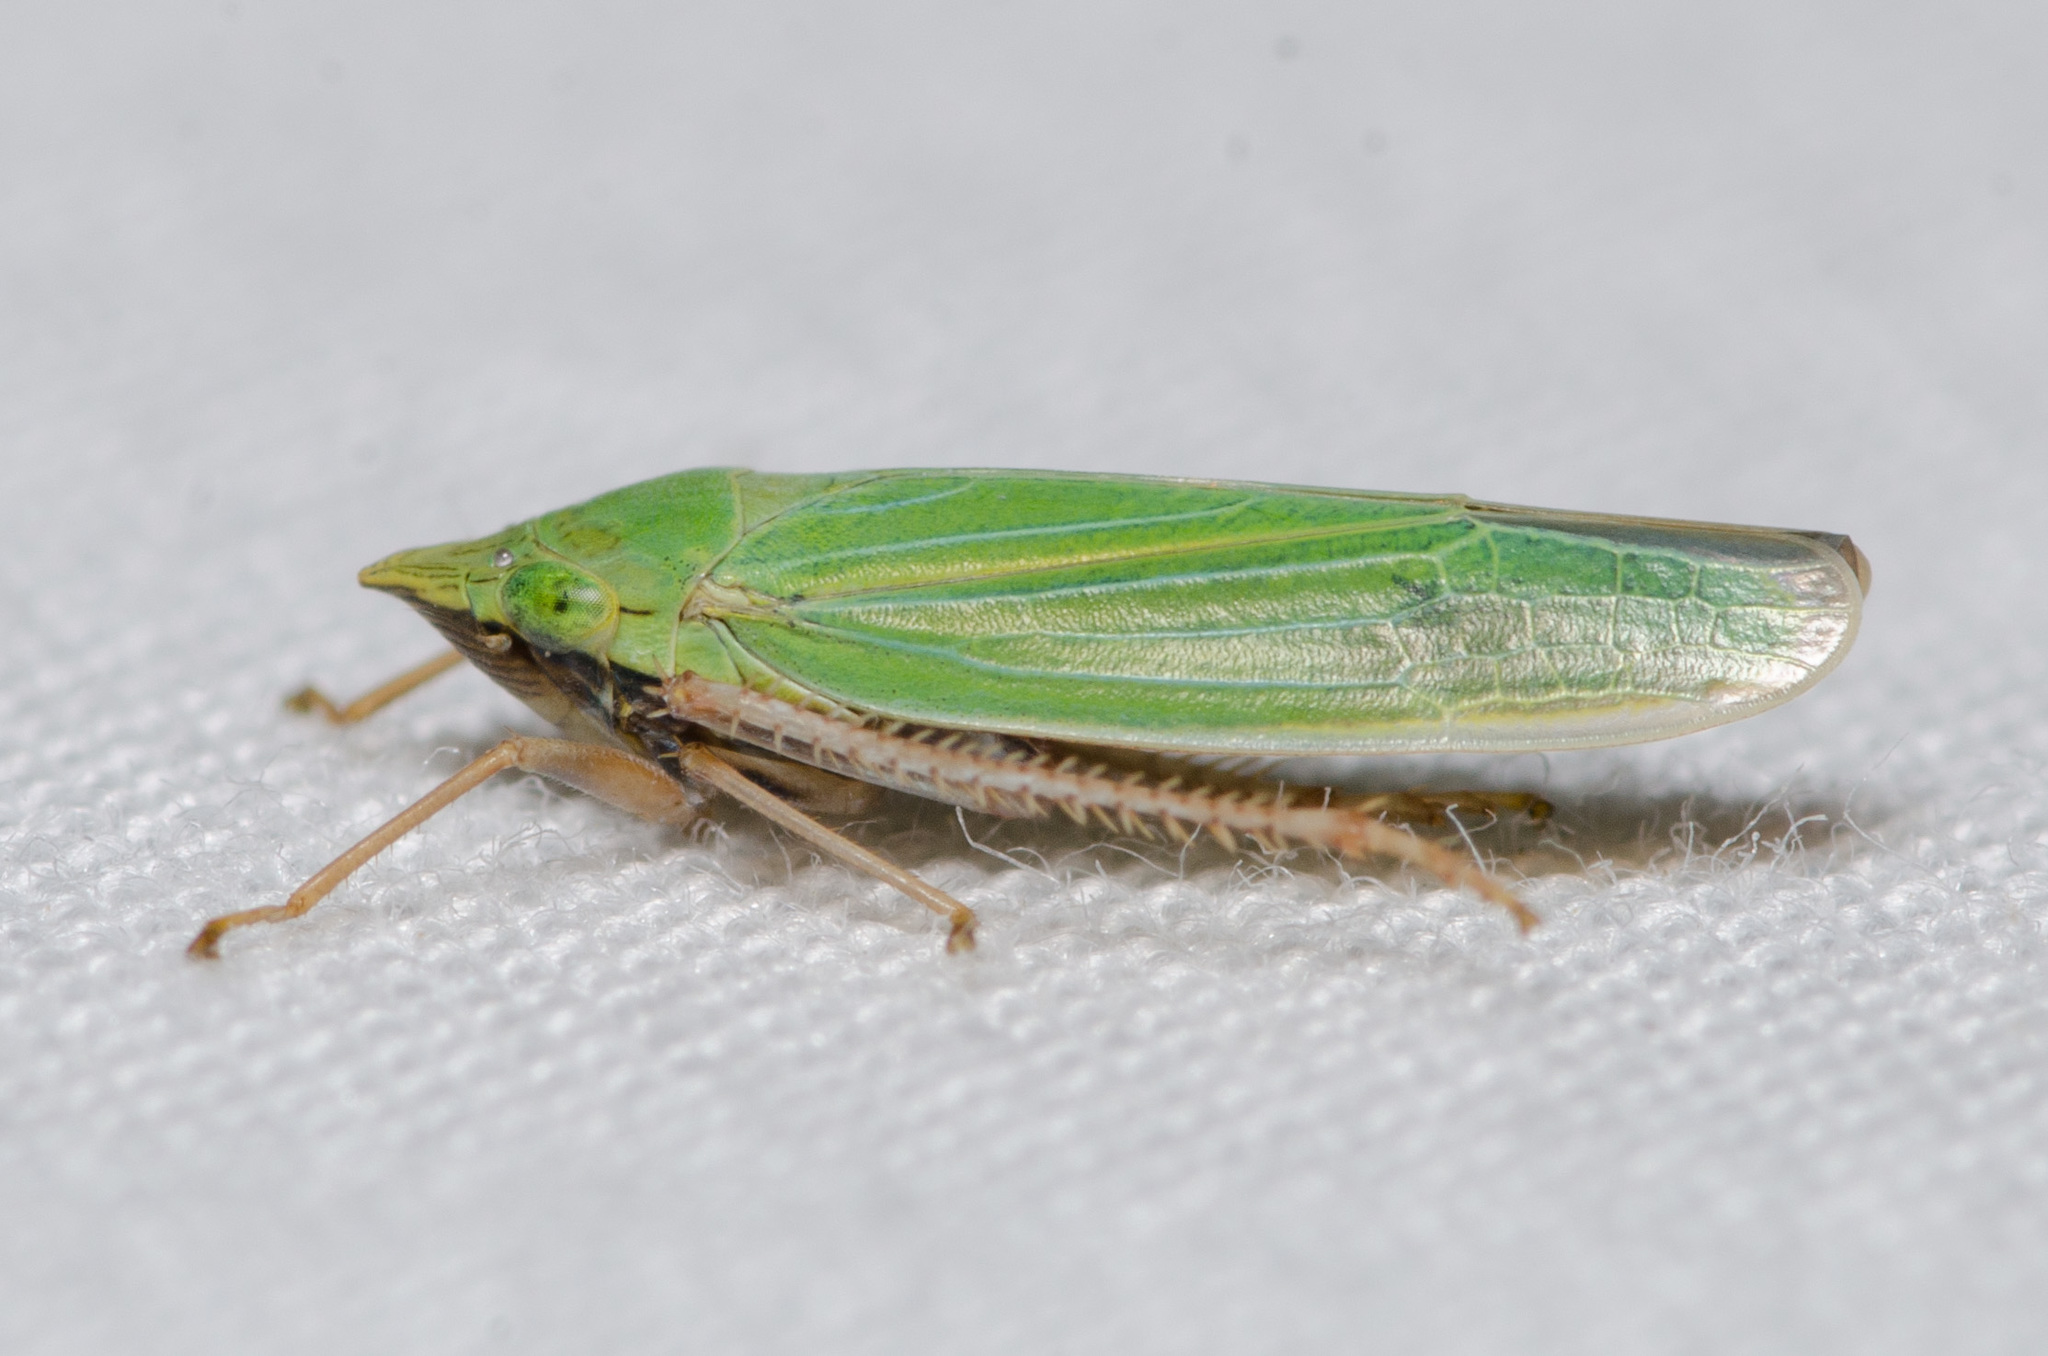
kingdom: Animalia
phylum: Arthropoda
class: Insecta
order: Hemiptera
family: Cicadellidae
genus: Draeculacephala
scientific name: Draeculacephala robinsoni
